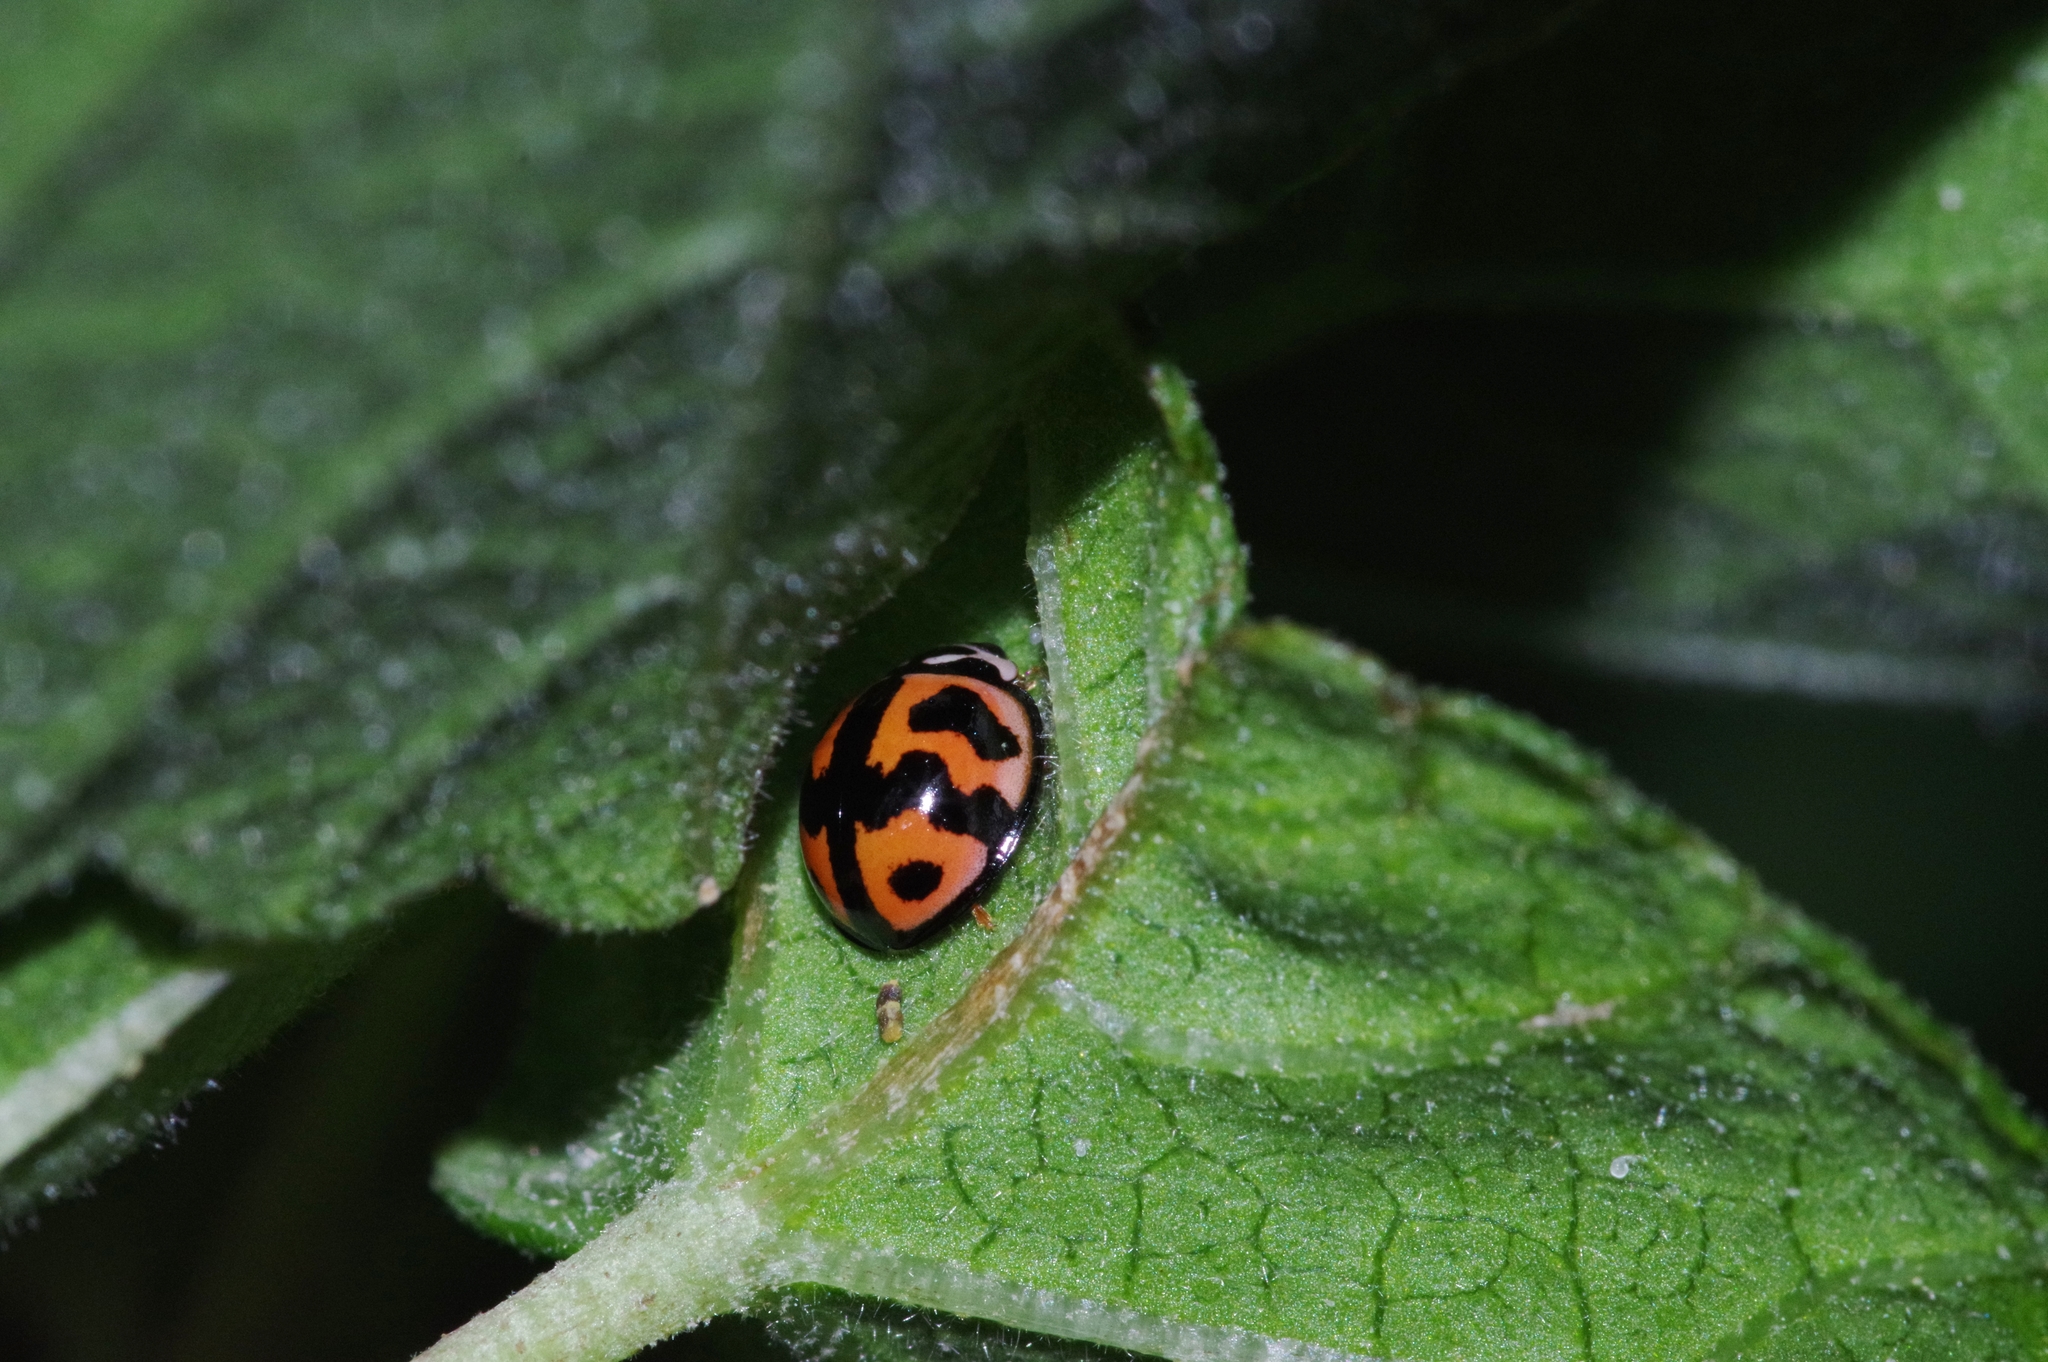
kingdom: Animalia
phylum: Arthropoda
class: Insecta
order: Coleoptera
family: Coccinellidae
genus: Cheilomenes
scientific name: Cheilomenes sexmaculata
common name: Ladybird beetle
